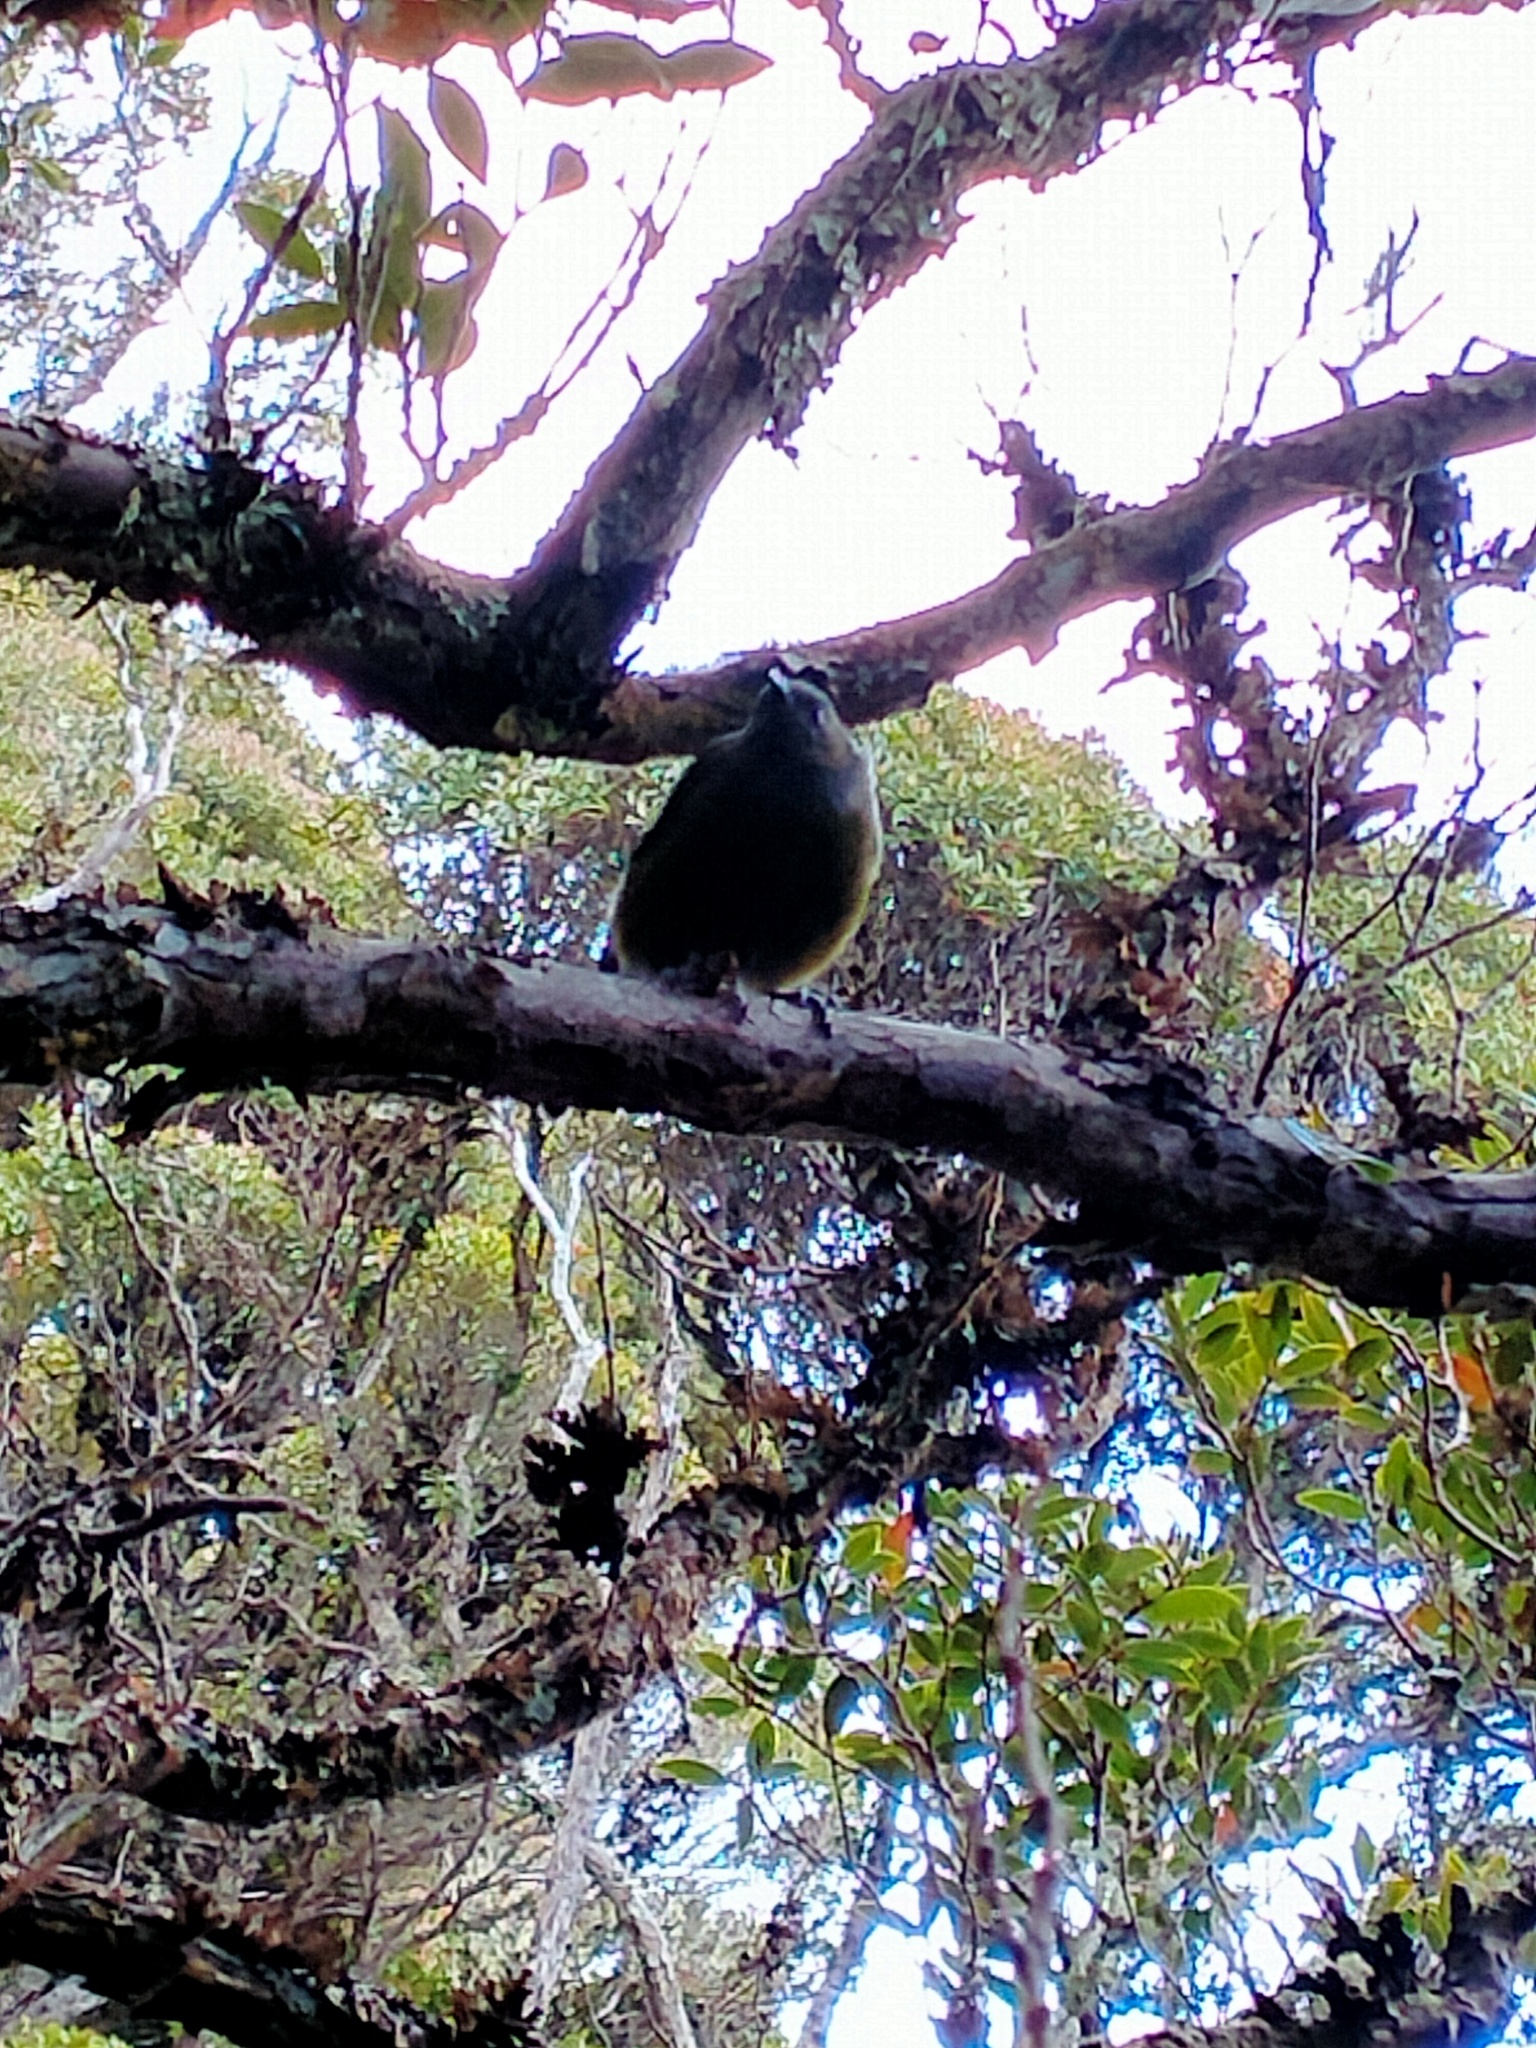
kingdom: Animalia
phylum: Chordata
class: Aves
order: Passeriformes
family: Meliphagidae
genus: Anthornis
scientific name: Anthornis melanura
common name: New zealand bellbird
